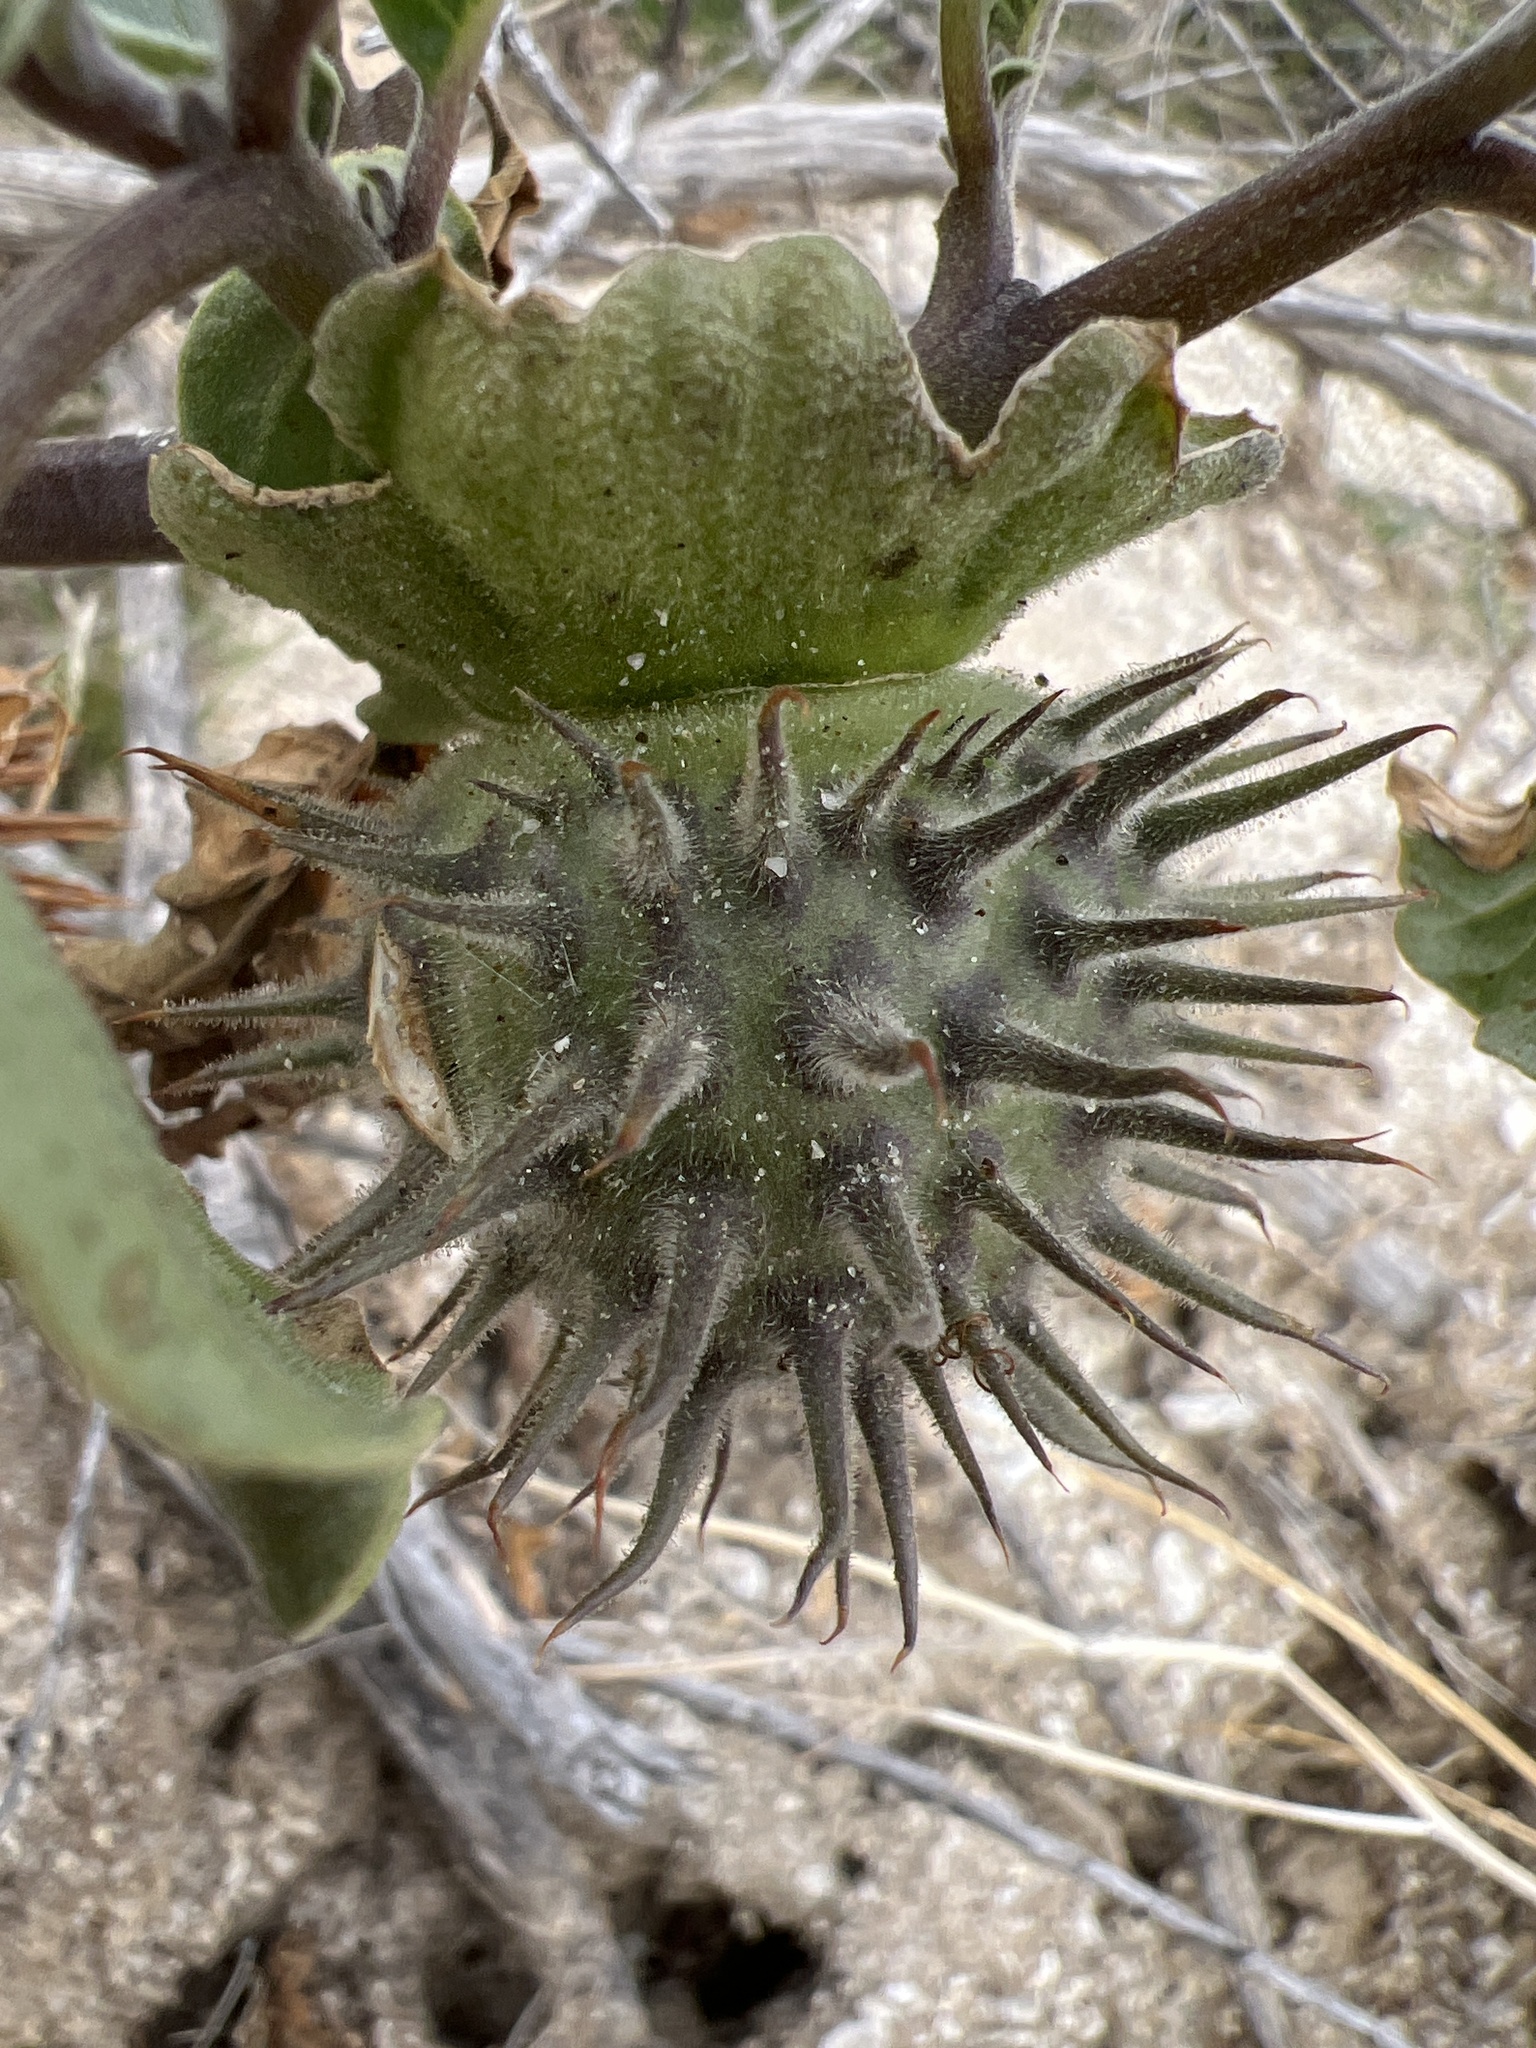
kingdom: Plantae
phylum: Tracheophyta
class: Magnoliopsida
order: Solanales
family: Solanaceae
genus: Datura
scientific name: Datura discolor
